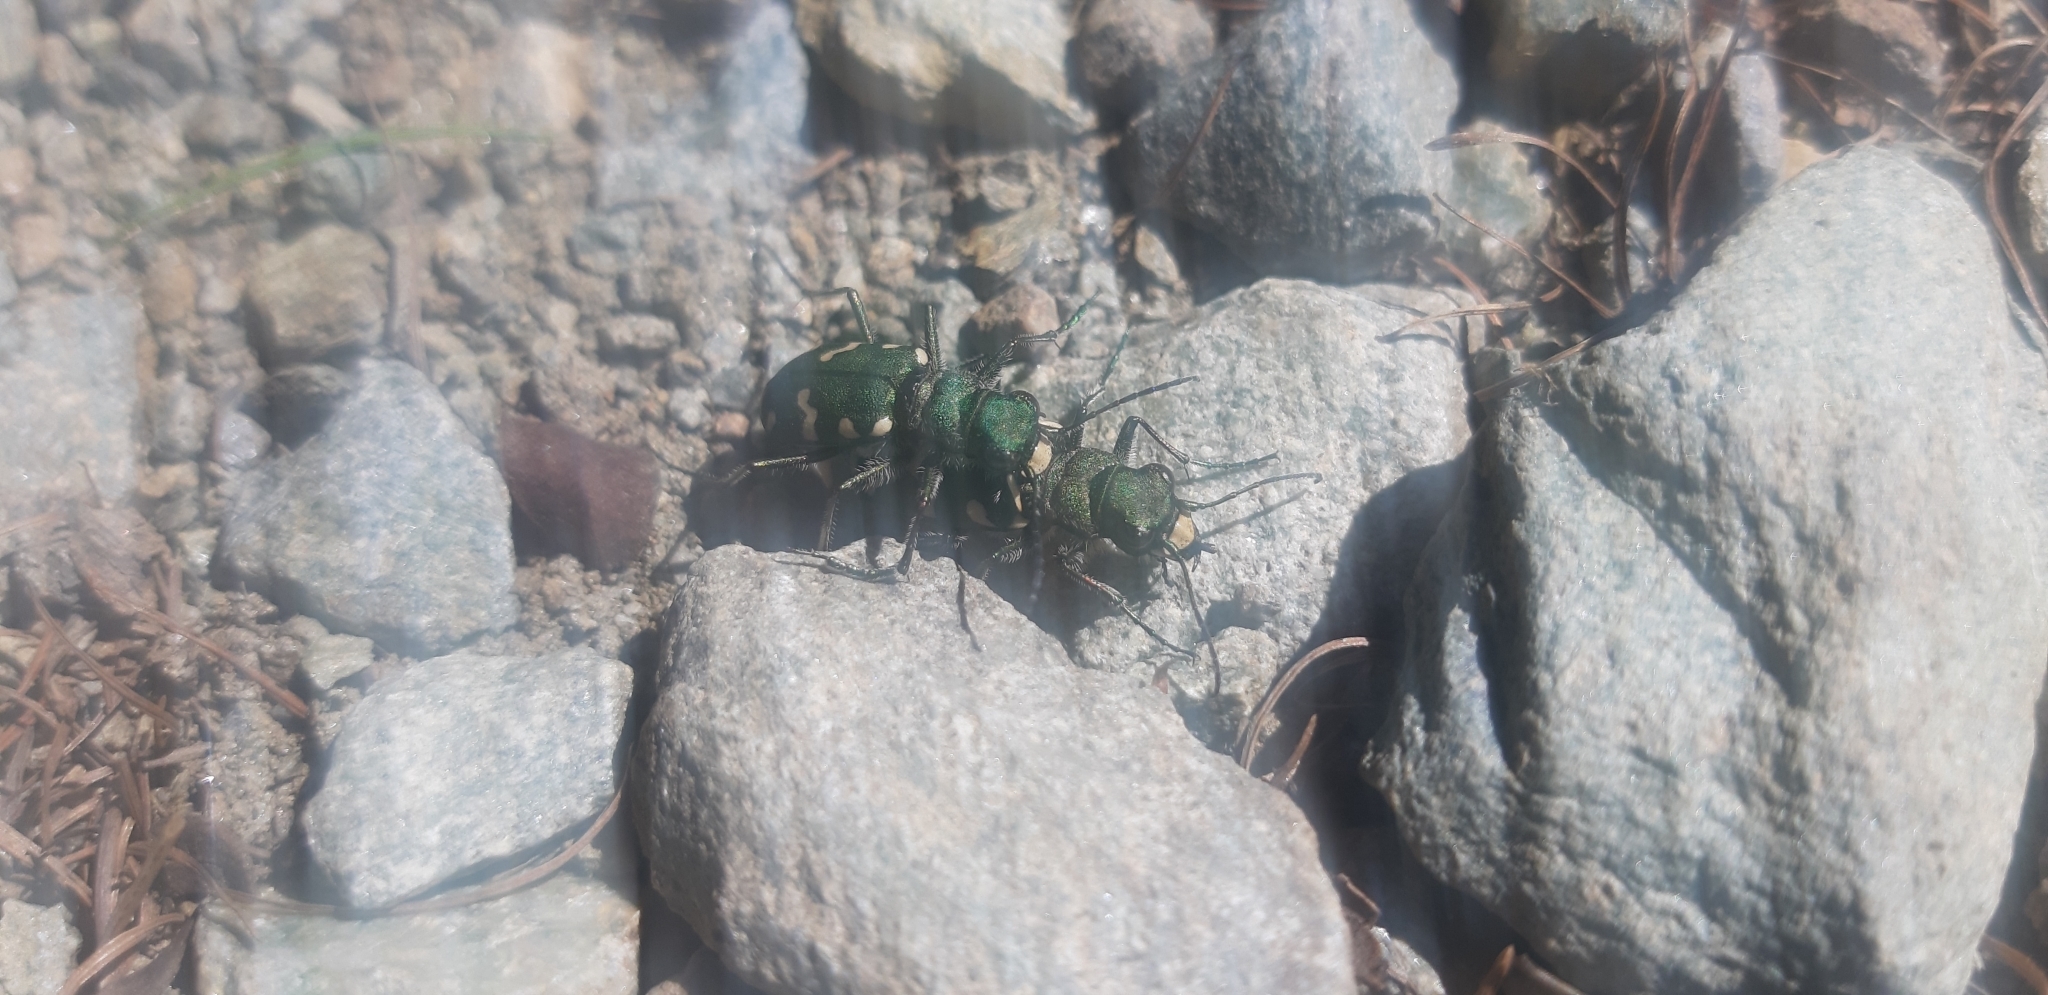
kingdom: Animalia
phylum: Arthropoda
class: Insecta
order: Coleoptera
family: Carabidae
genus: Cicindela
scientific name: Cicindela gallica
